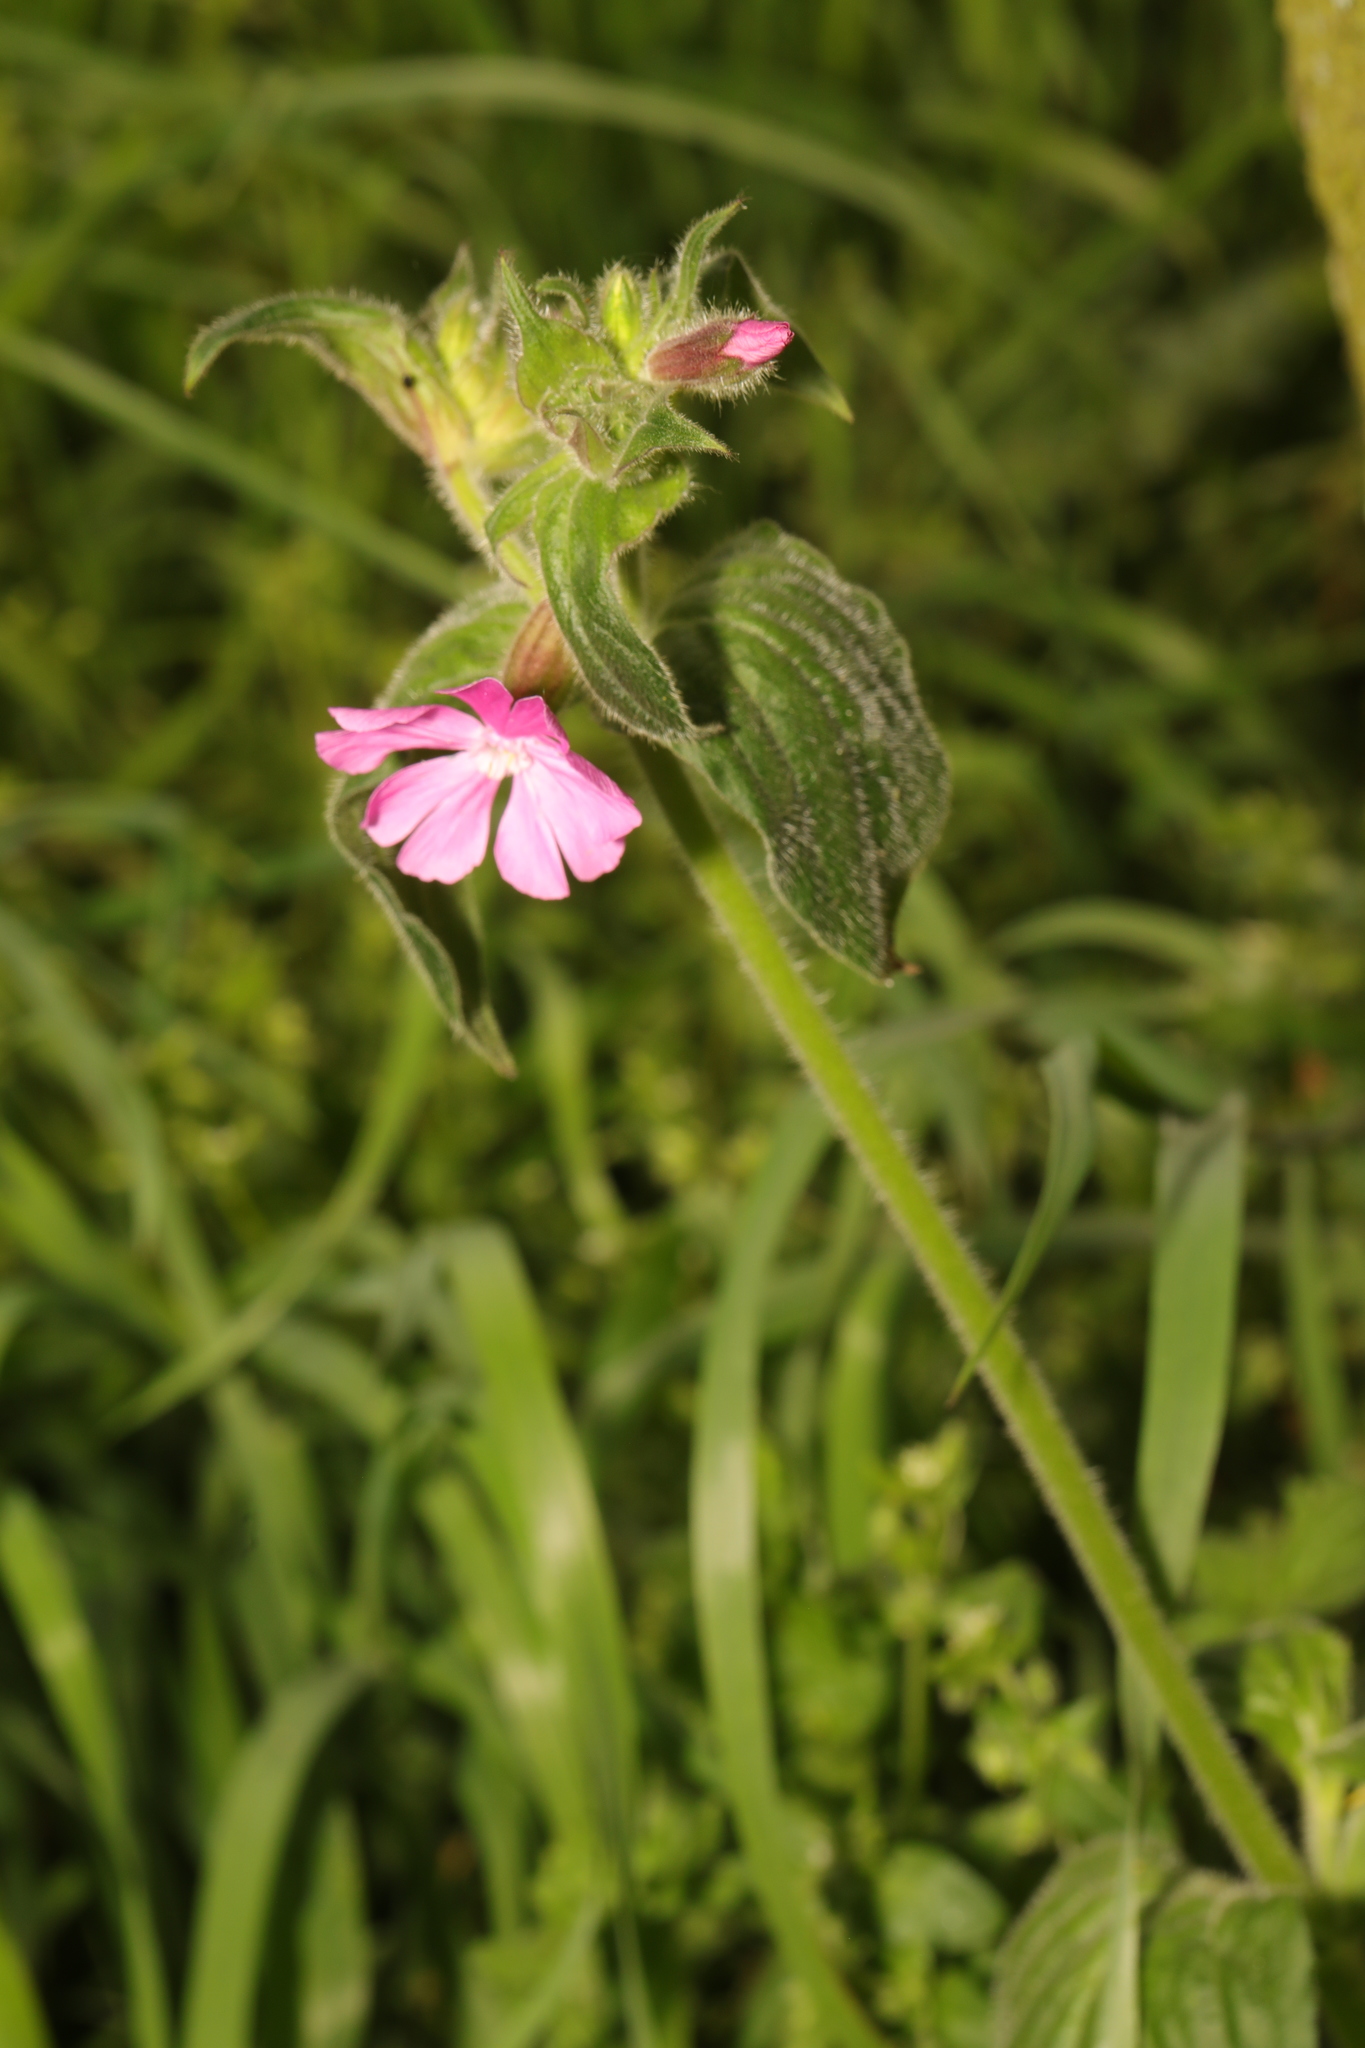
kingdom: Plantae
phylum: Tracheophyta
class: Magnoliopsida
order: Caryophyllales
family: Caryophyllaceae
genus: Silene
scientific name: Silene dioica
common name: Red campion
